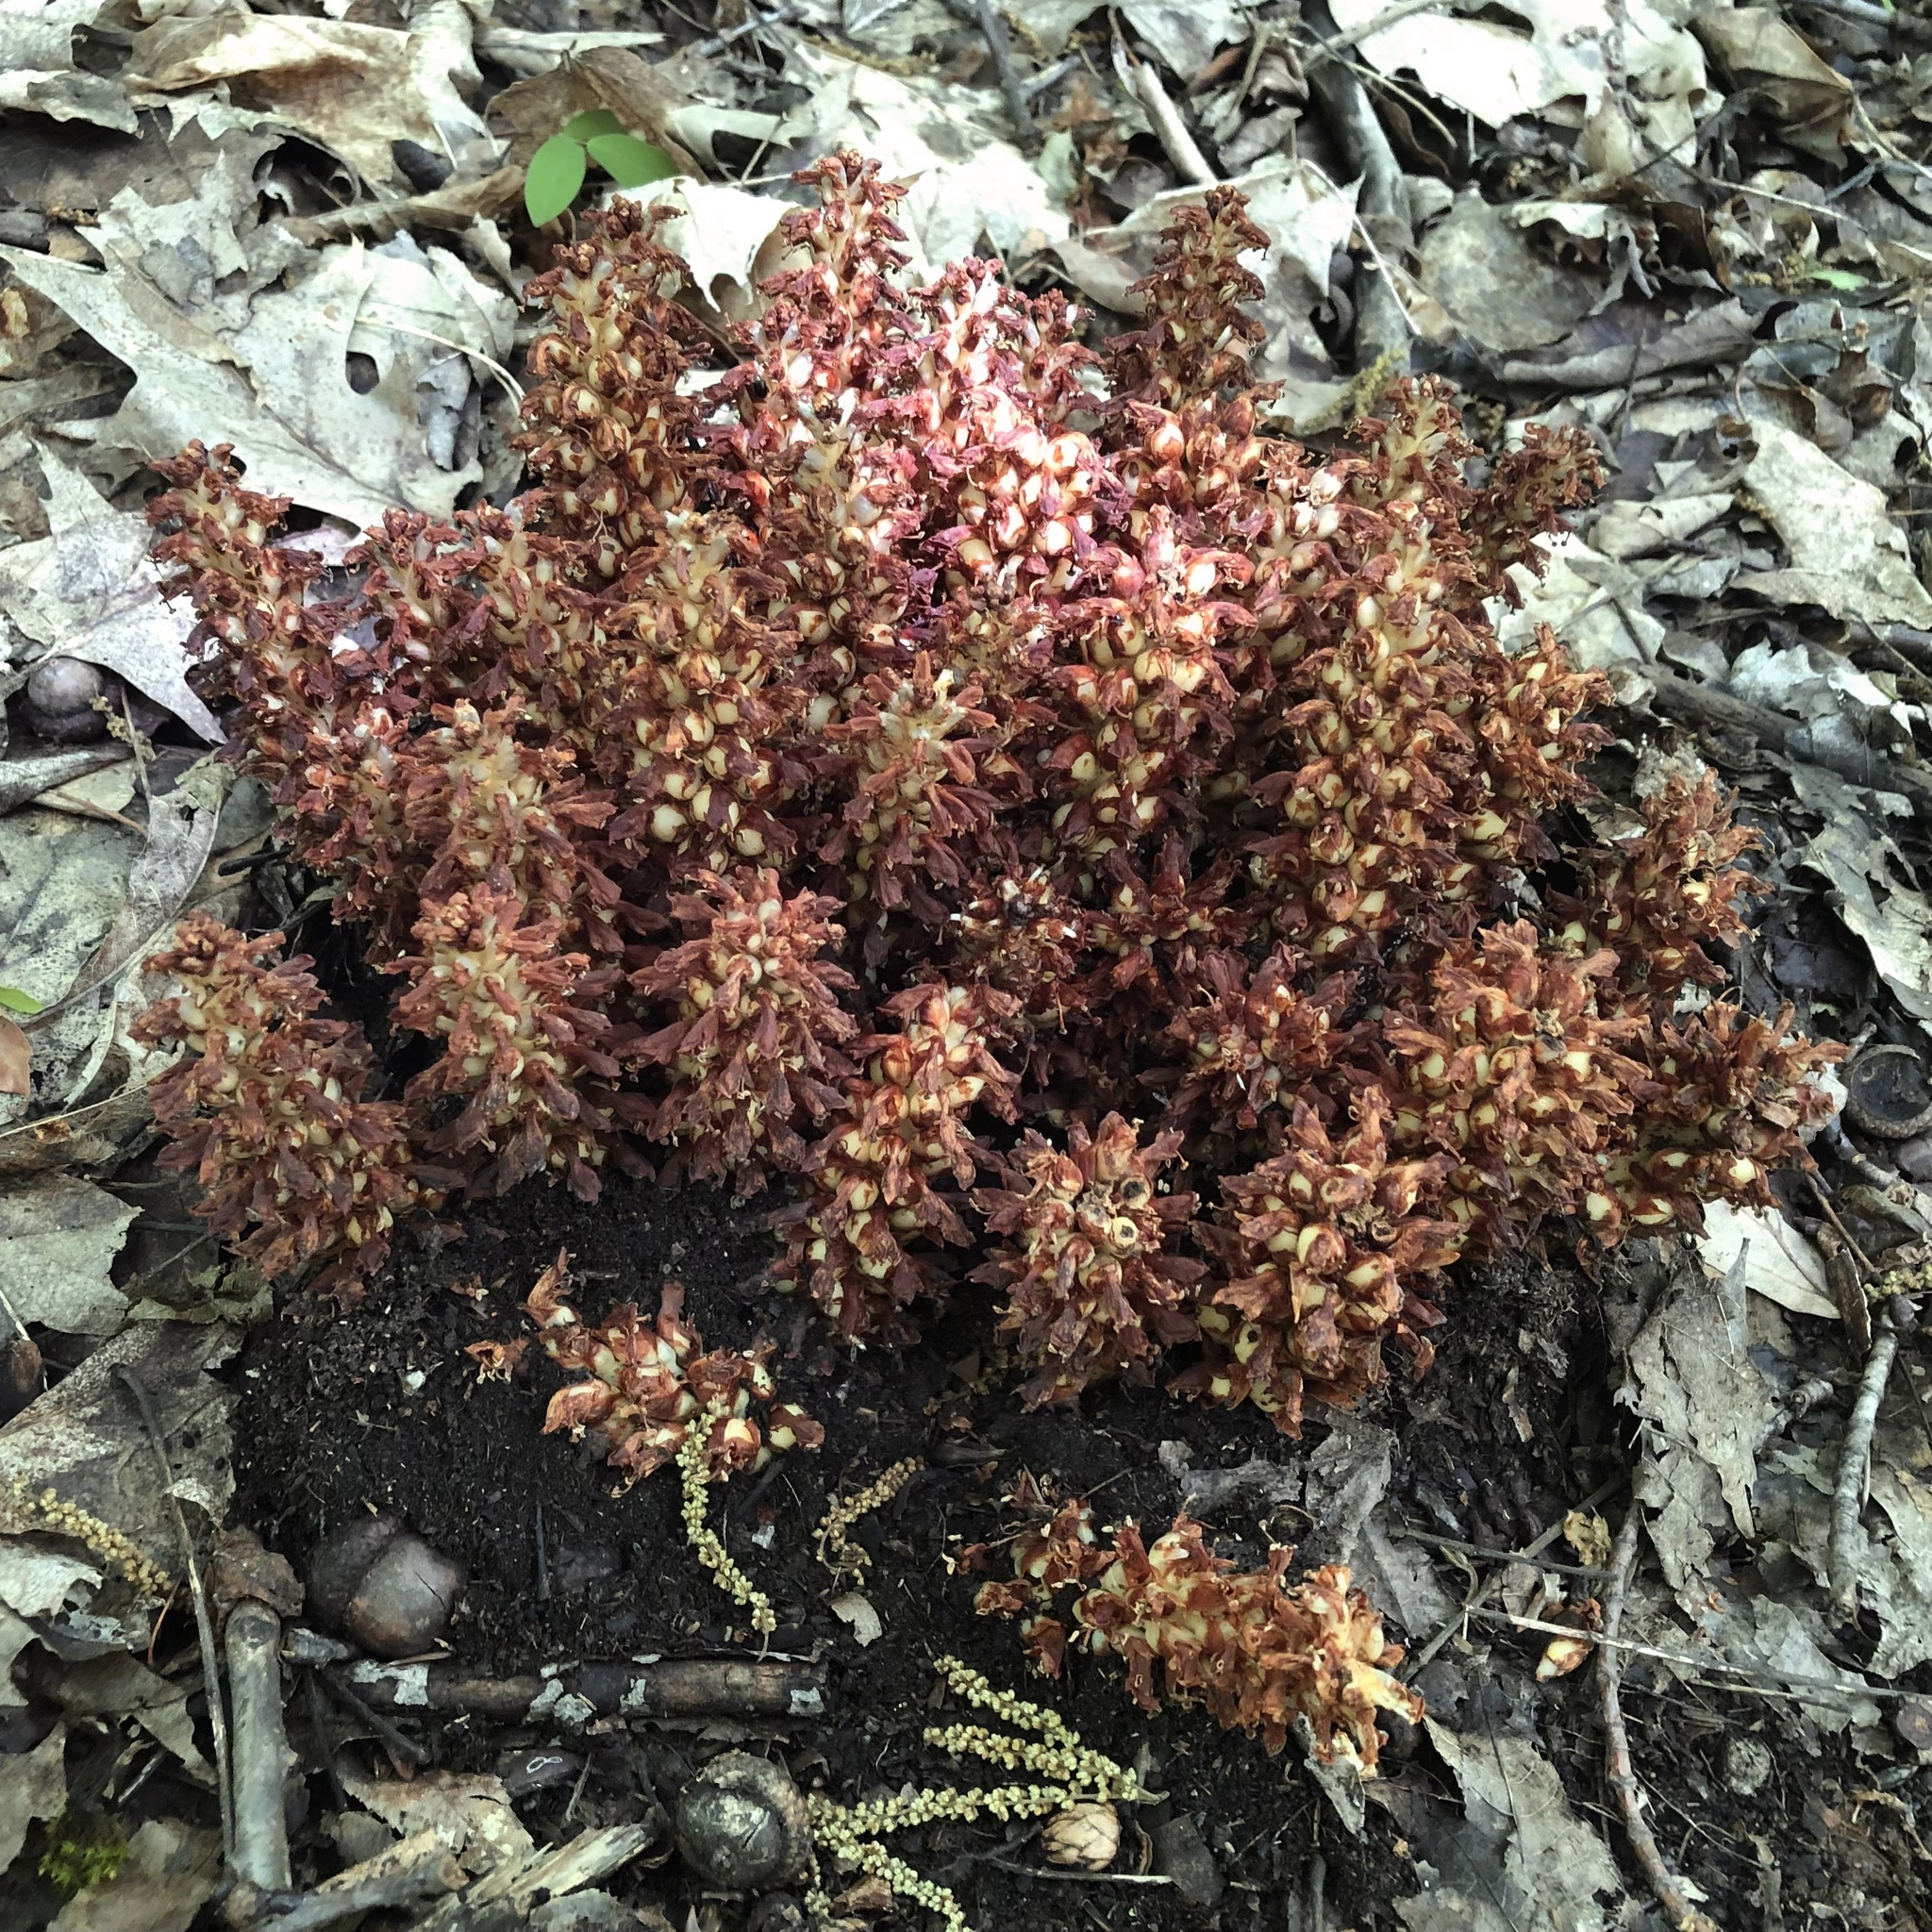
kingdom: Plantae
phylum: Tracheophyta
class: Magnoliopsida
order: Lamiales
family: Orobanchaceae
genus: Conopholis
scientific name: Conopholis americana
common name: American cancer-root
